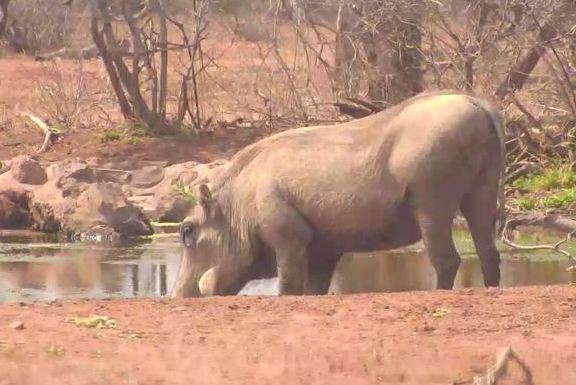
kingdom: Animalia
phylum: Chordata
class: Mammalia
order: Artiodactyla
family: Suidae
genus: Phacochoerus
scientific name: Phacochoerus africanus
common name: Common warthog
